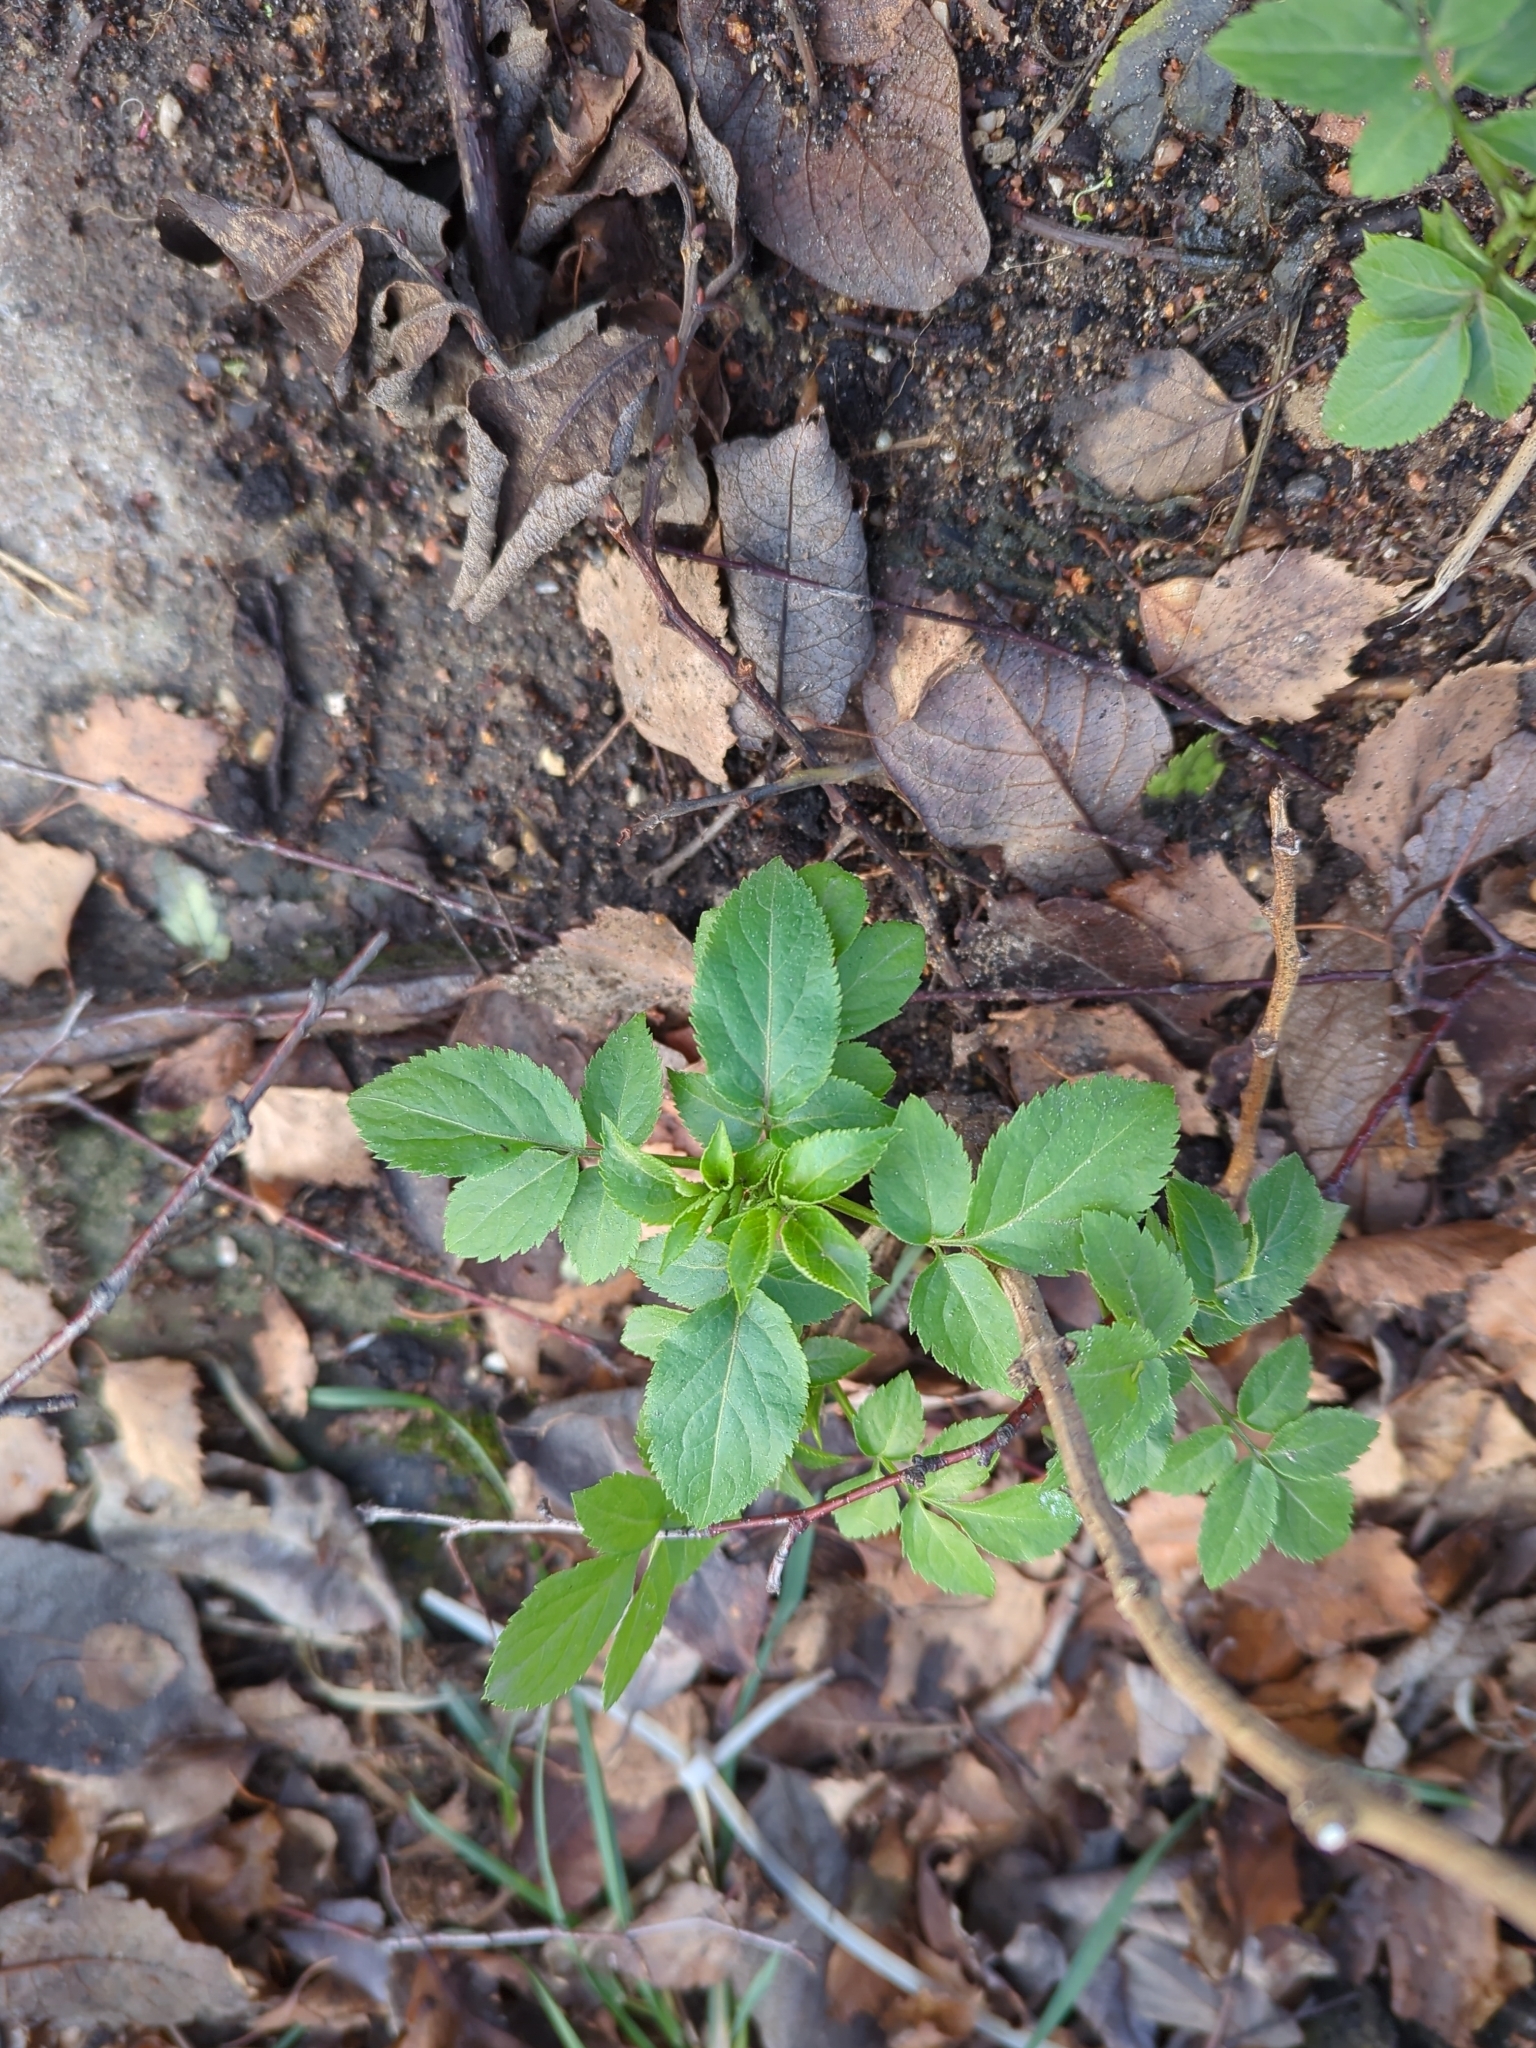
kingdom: Plantae
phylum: Tracheophyta
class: Magnoliopsida
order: Dipsacales
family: Viburnaceae
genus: Sambucus
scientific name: Sambucus nigra
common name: Elder
